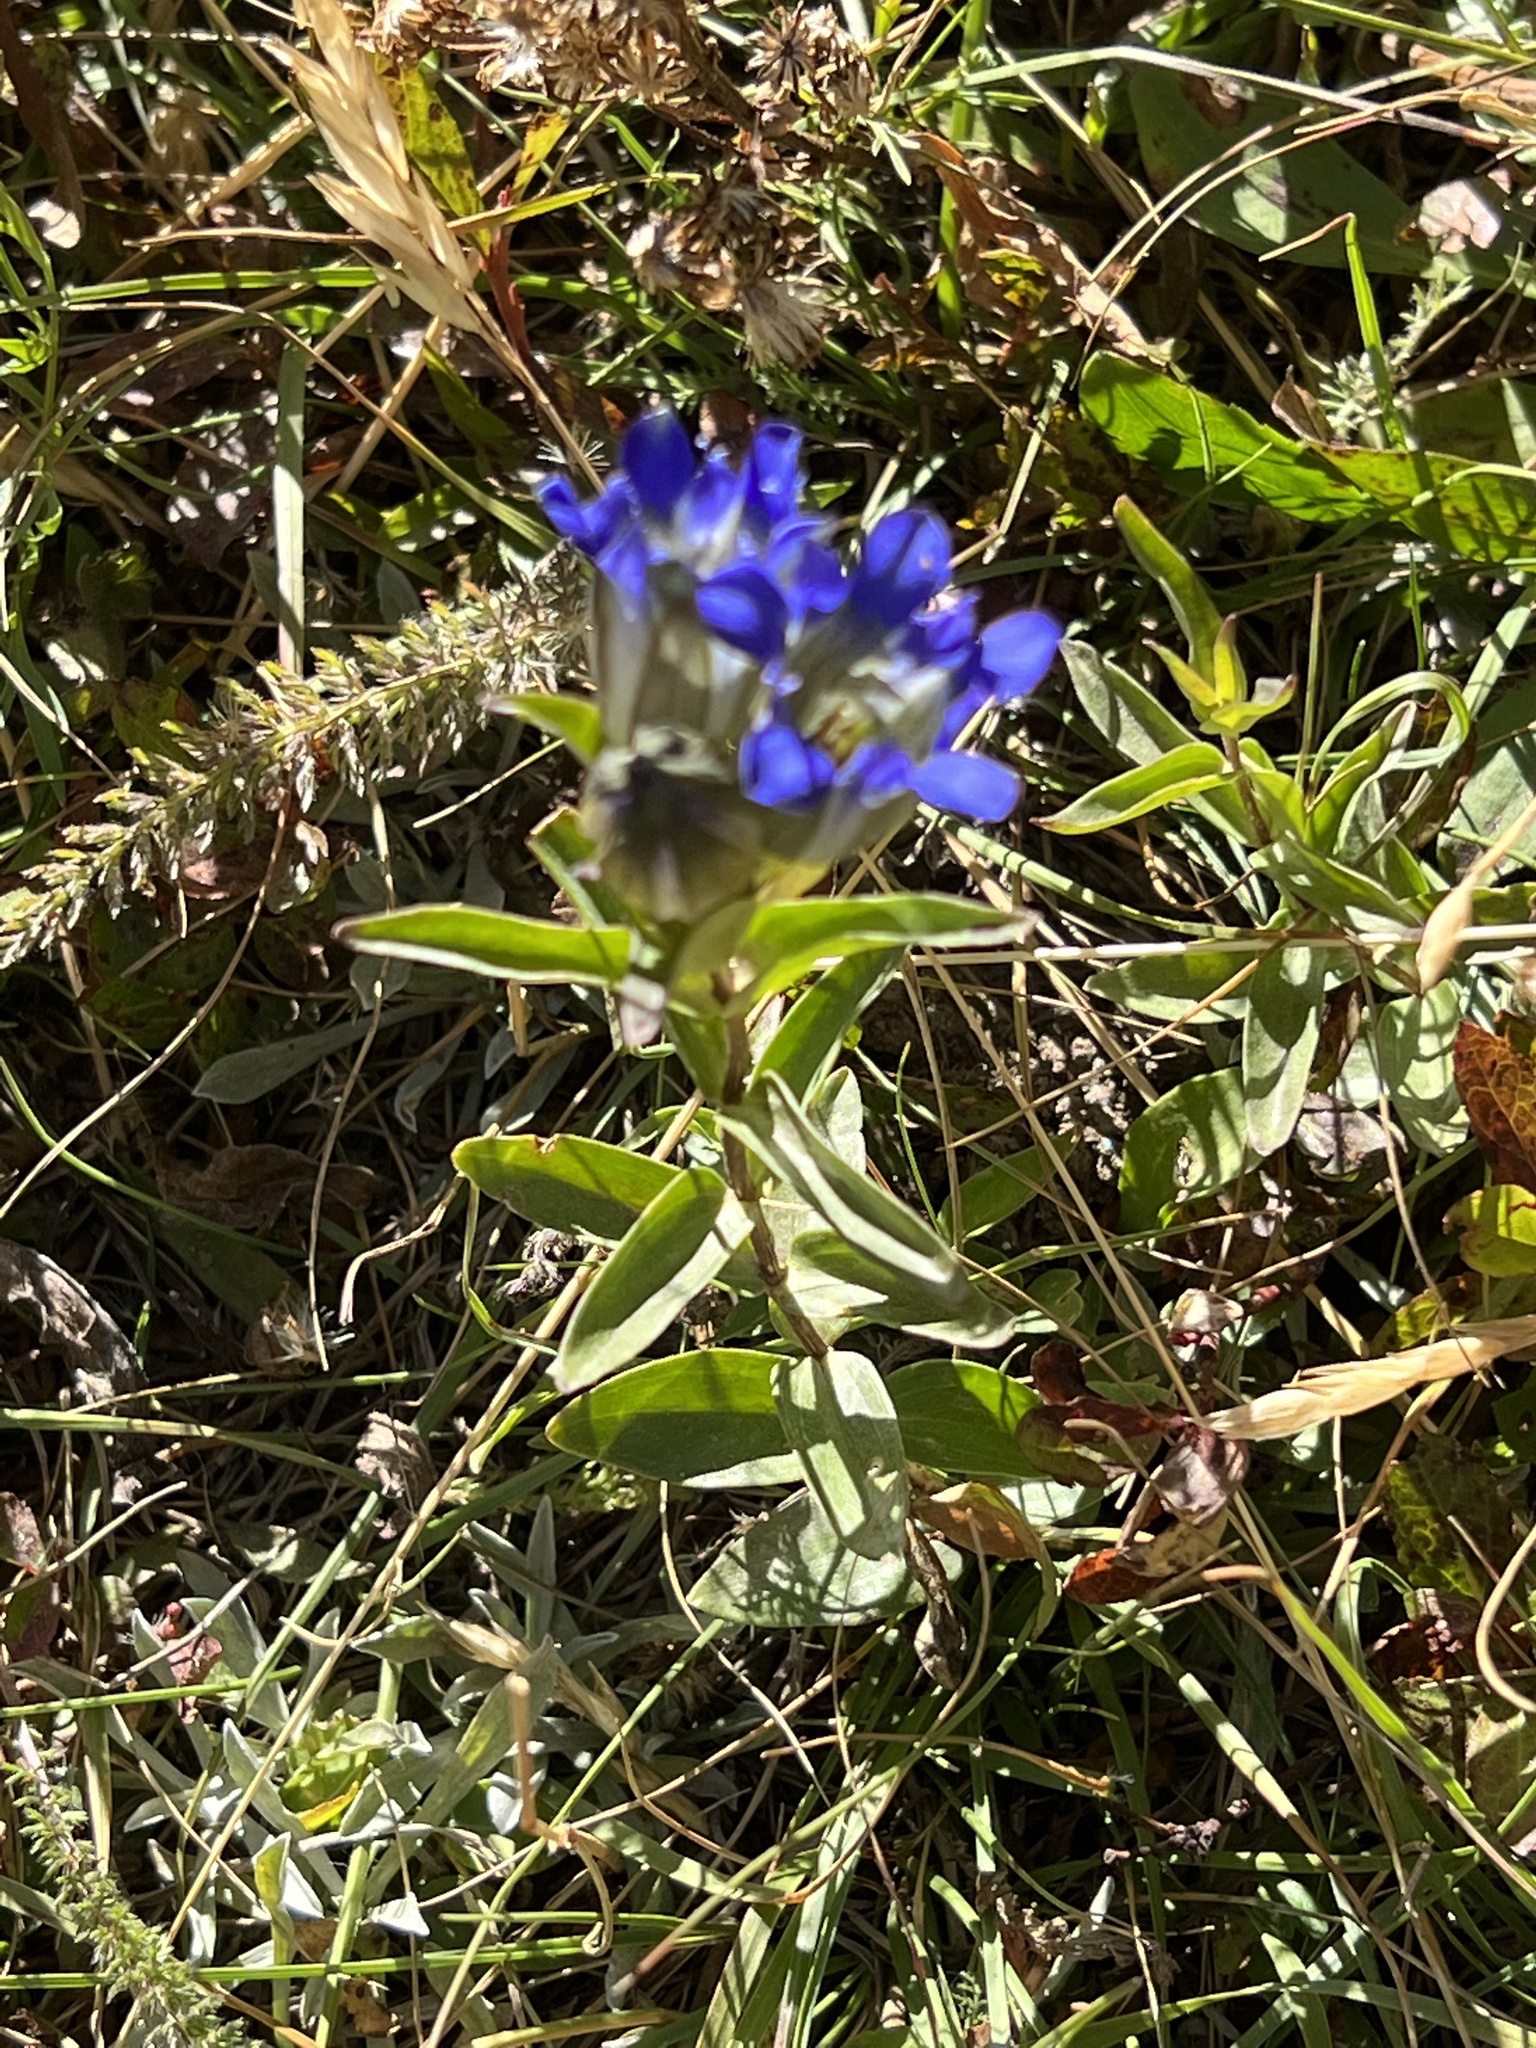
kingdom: Plantae
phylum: Tracheophyta
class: Magnoliopsida
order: Gentianales
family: Gentianaceae
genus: Gentiana
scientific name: Gentiana parryi
